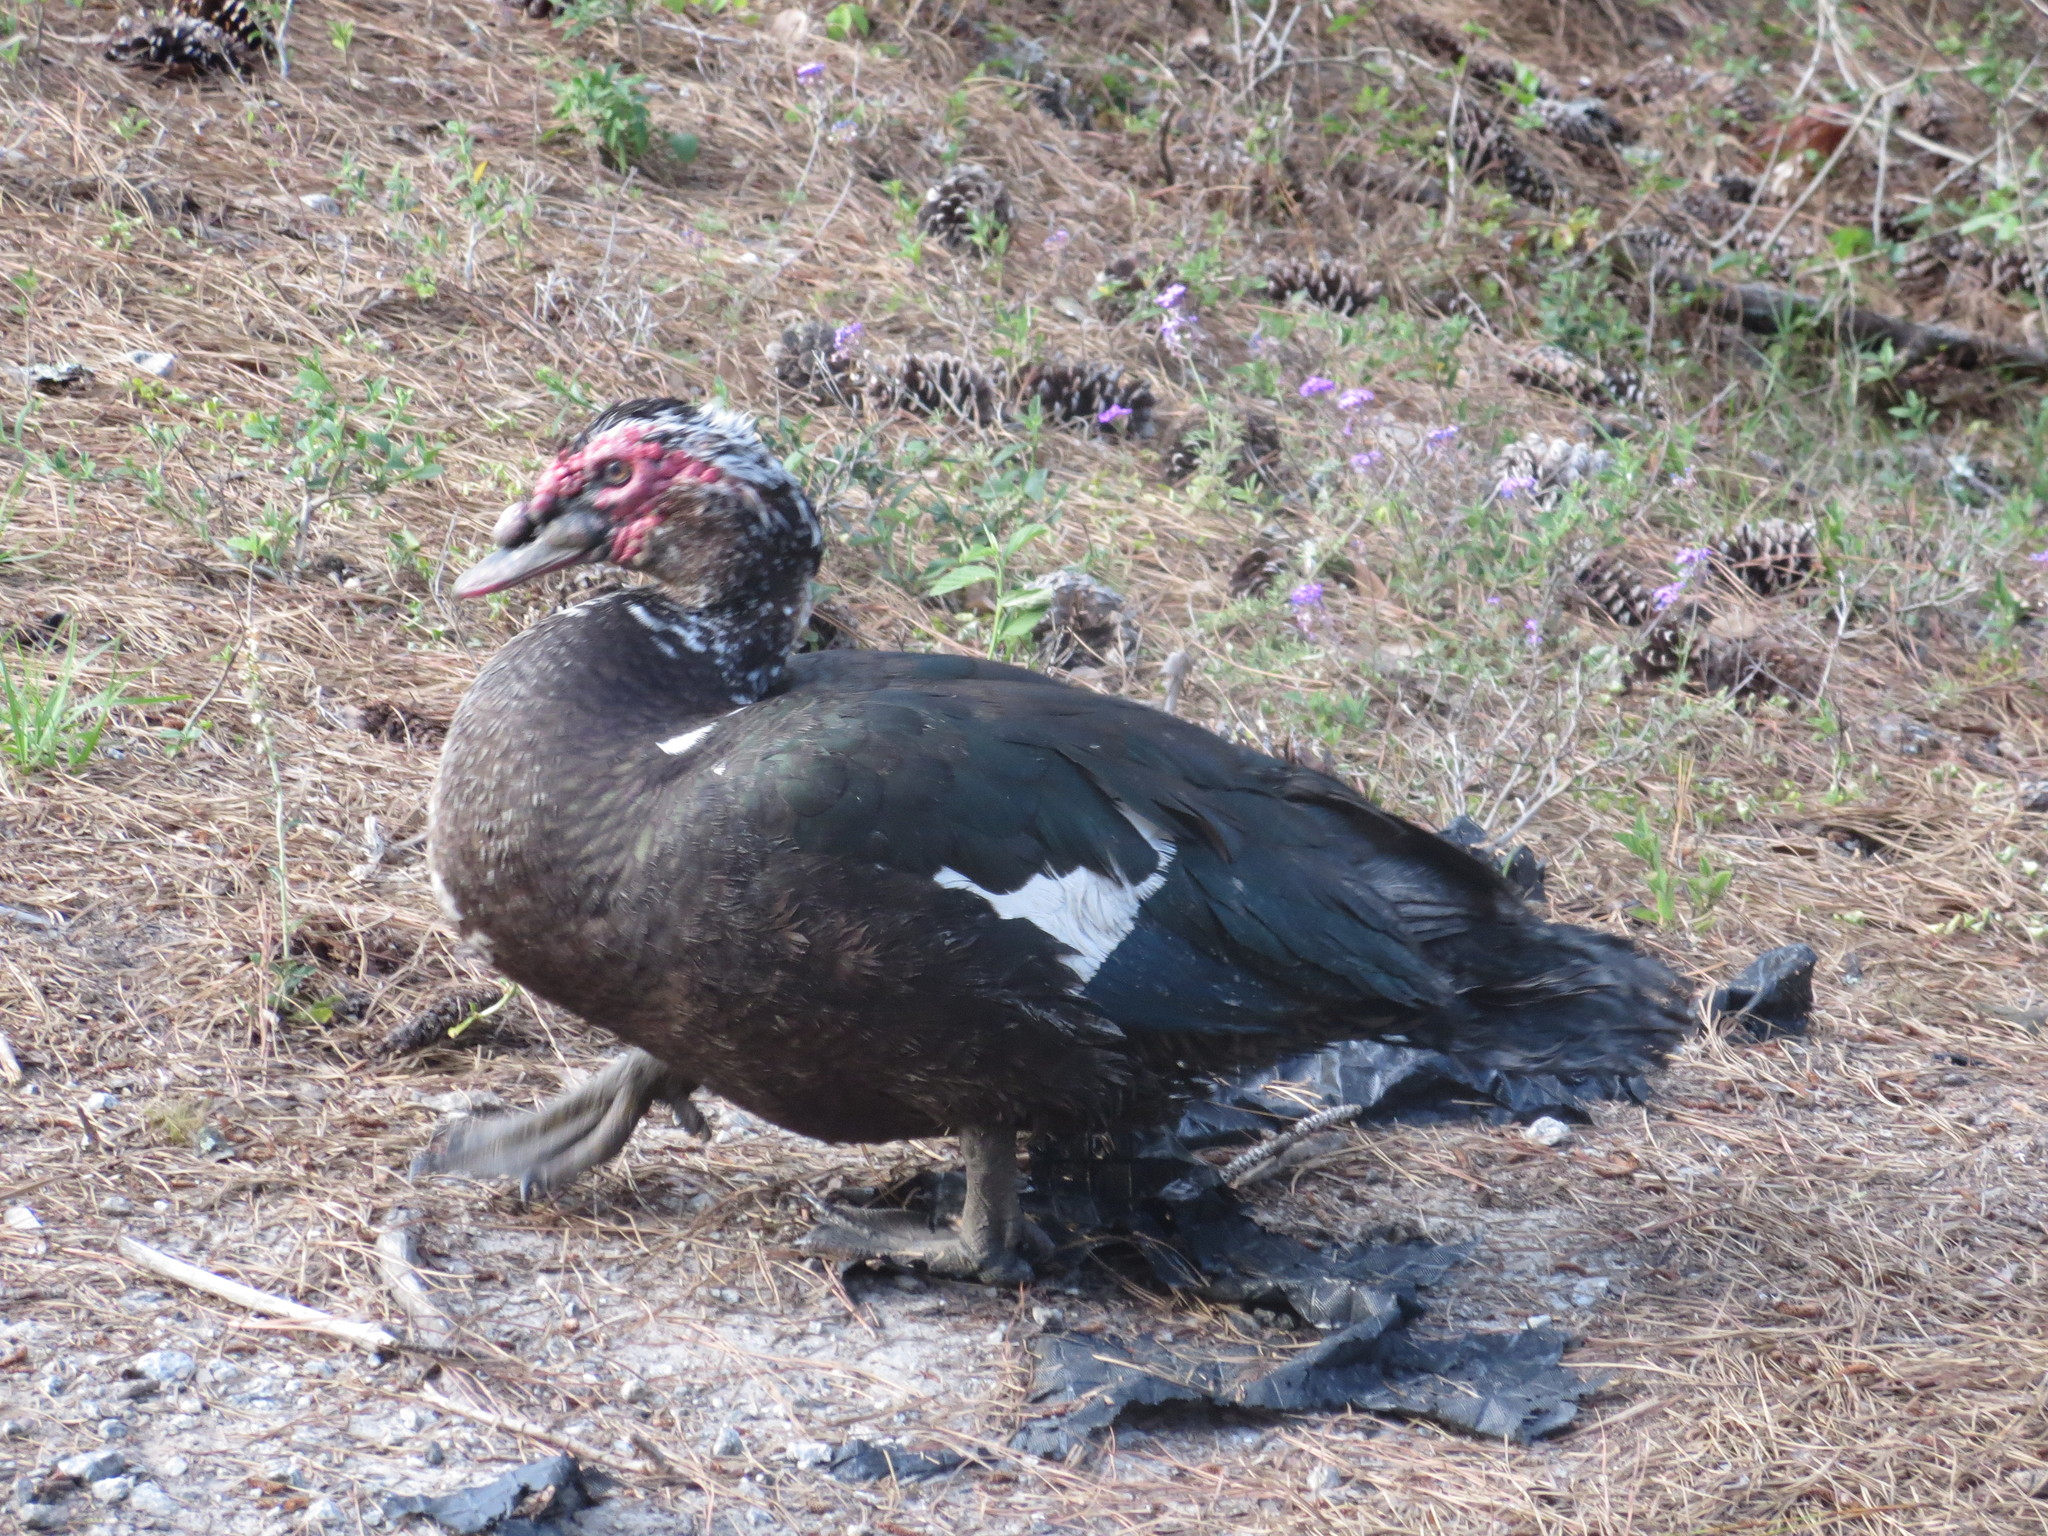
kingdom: Animalia
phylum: Chordata
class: Aves
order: Anseriformes
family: Anatidae
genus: Cairina
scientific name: Cairina moschata
